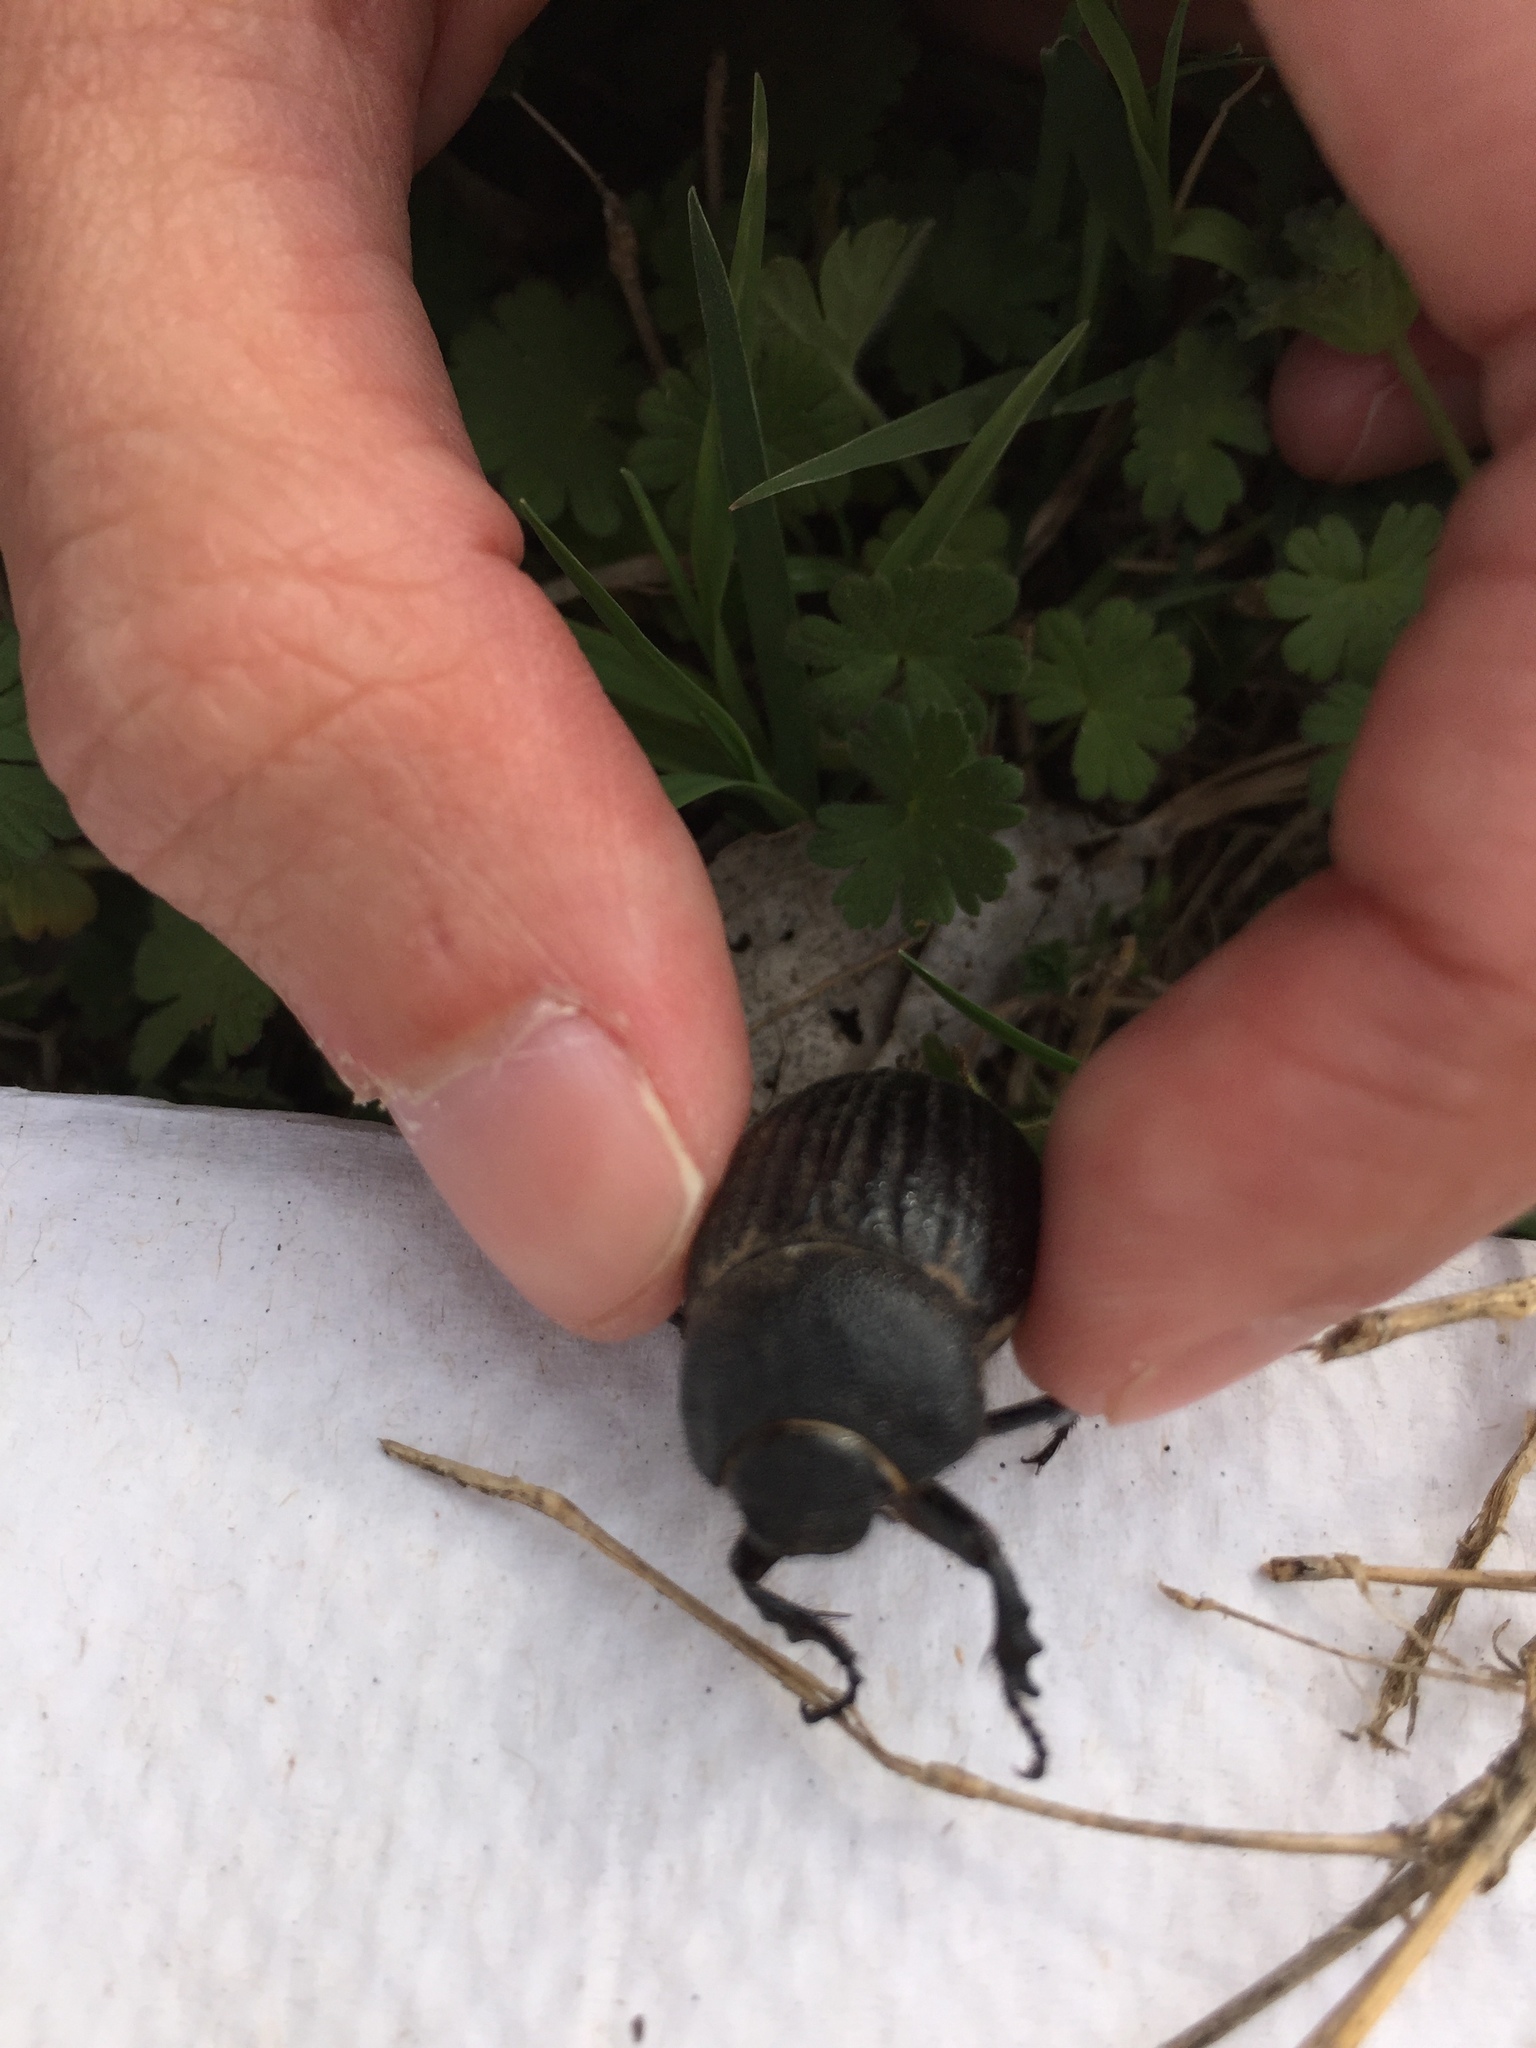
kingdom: Animalia
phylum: Arthropoda
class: Insecta
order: Coleoptera
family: Scarabaeidae
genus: Phyllophaga
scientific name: Phyllophaga cribrosa
